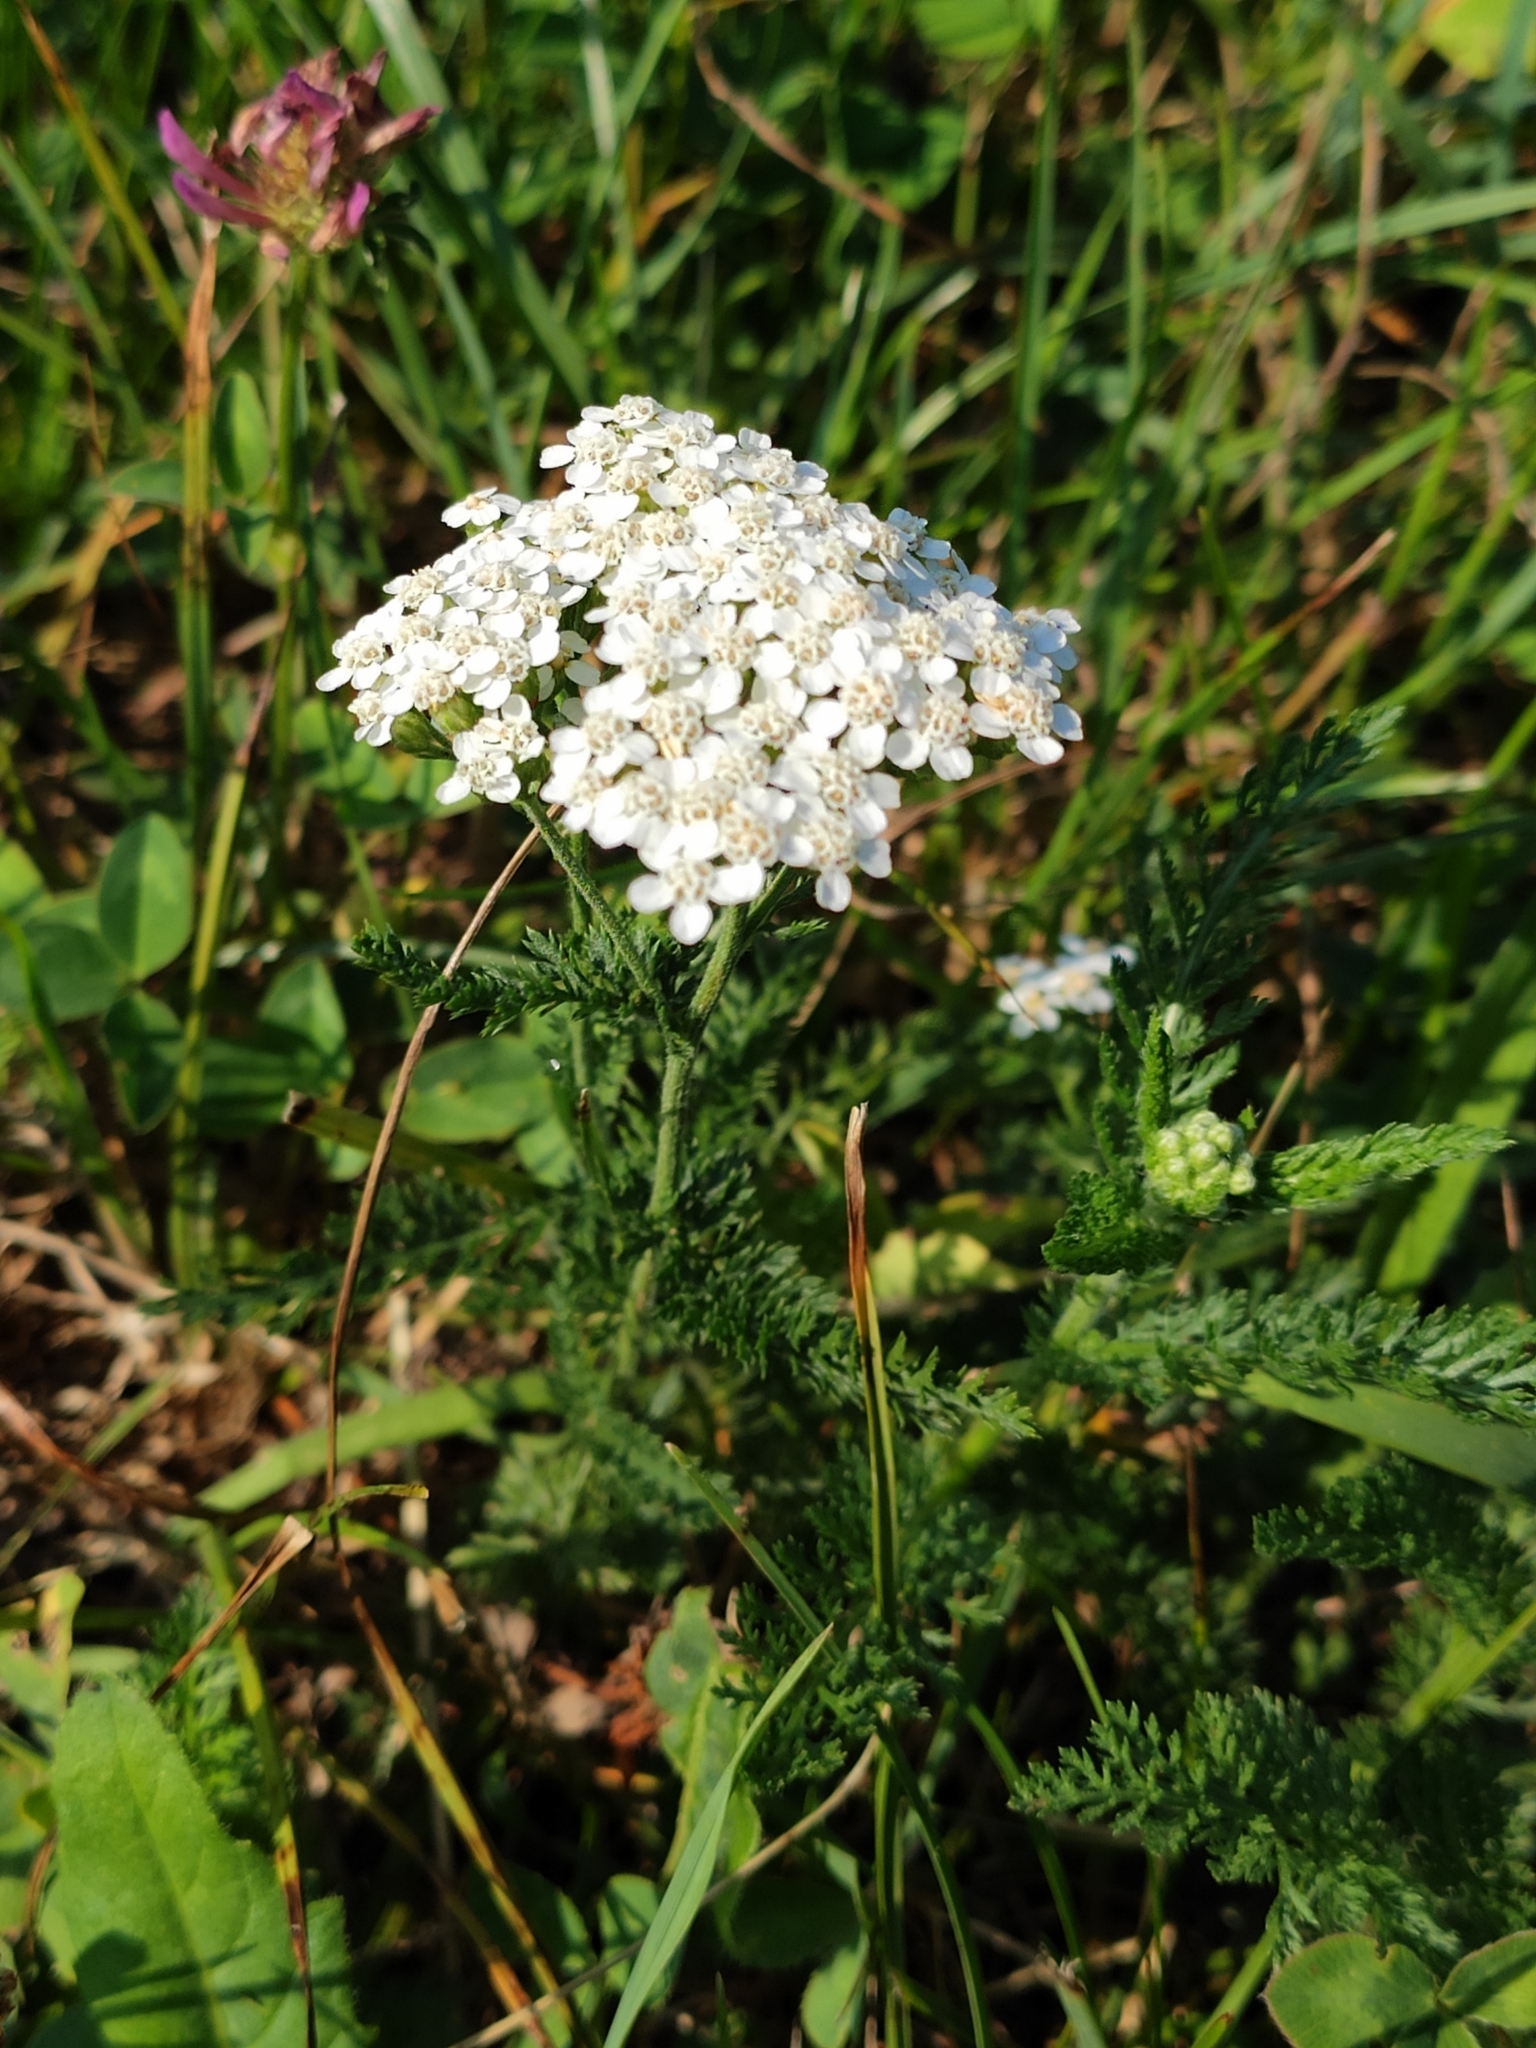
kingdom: Plantae
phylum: Tracheophyta
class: Magnoliopsida
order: Asterales
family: Asteraceae
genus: Achillea
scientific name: Achillea millefolium
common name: Yarrow
